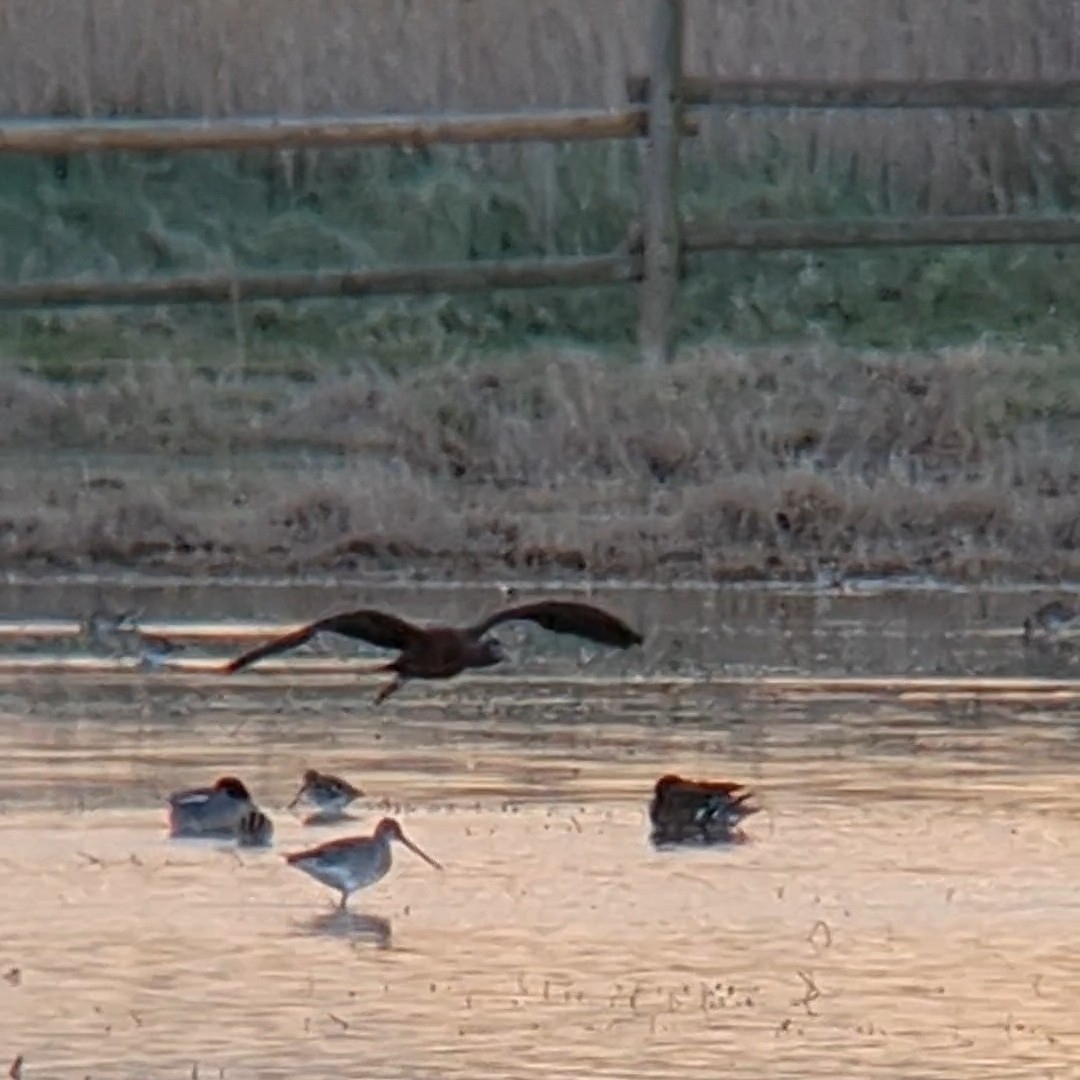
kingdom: Animalia
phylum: Chordata
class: Aves
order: Charadriiformes
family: Scolopacidae
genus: Limosa
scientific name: Limosa limosa
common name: Black-tailed godwit
